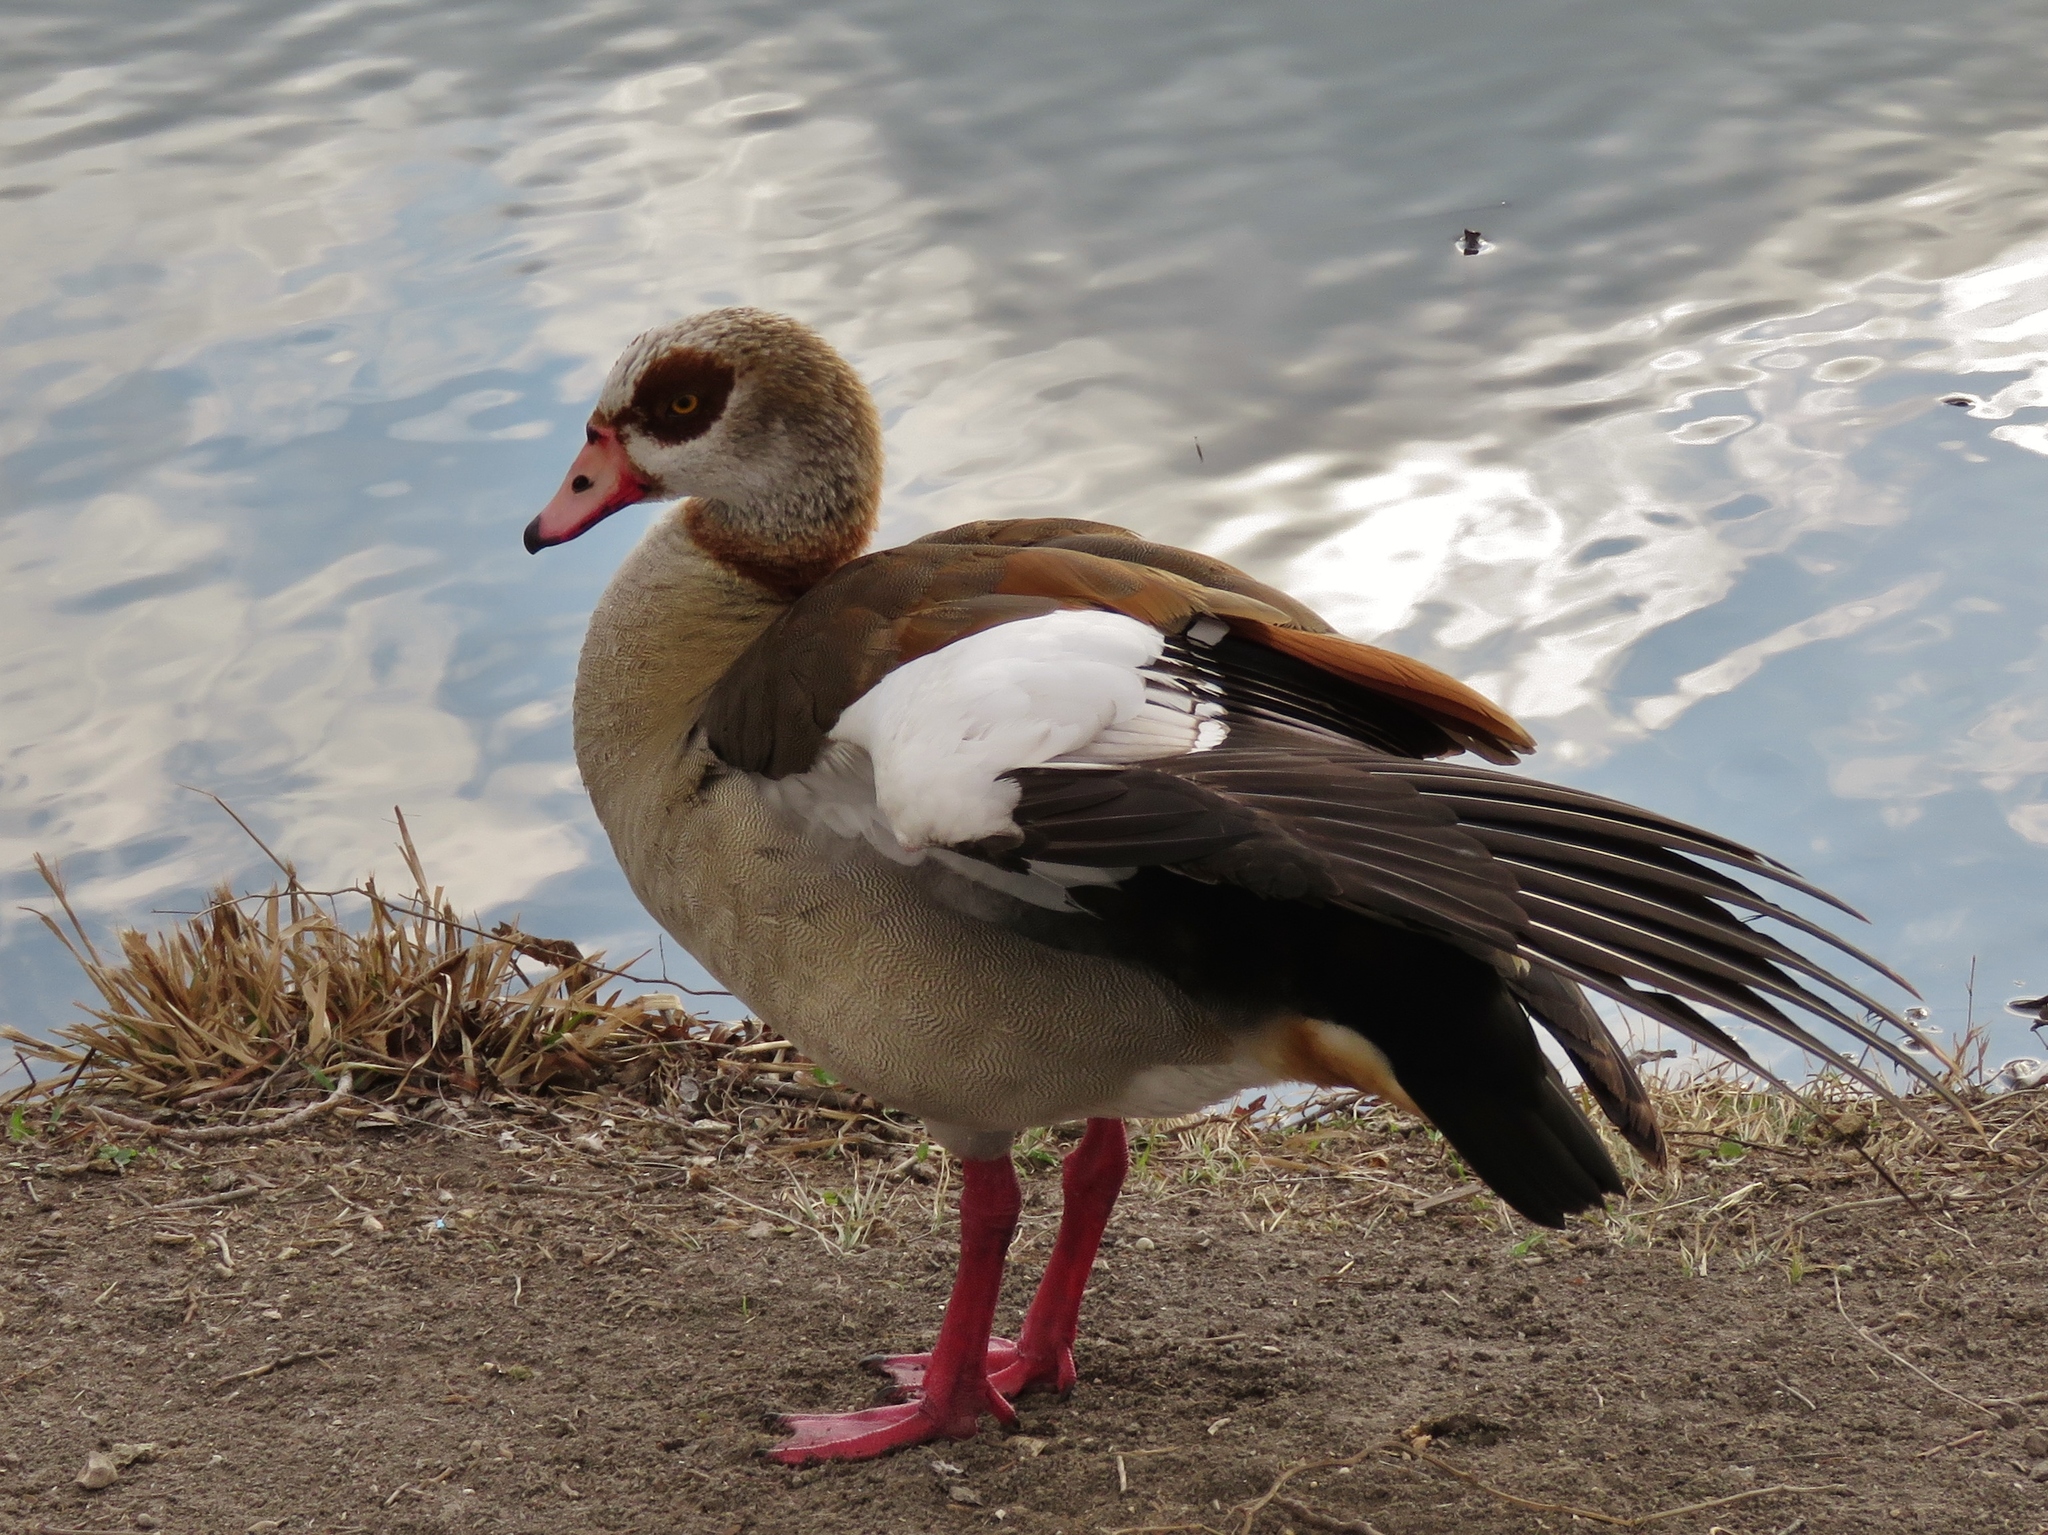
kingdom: Animalia
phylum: Chordata
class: Aves
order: Anseriformes
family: Anatidae
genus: Alopochen
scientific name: Alopochen aegyptiaca
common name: Egyptian goose
